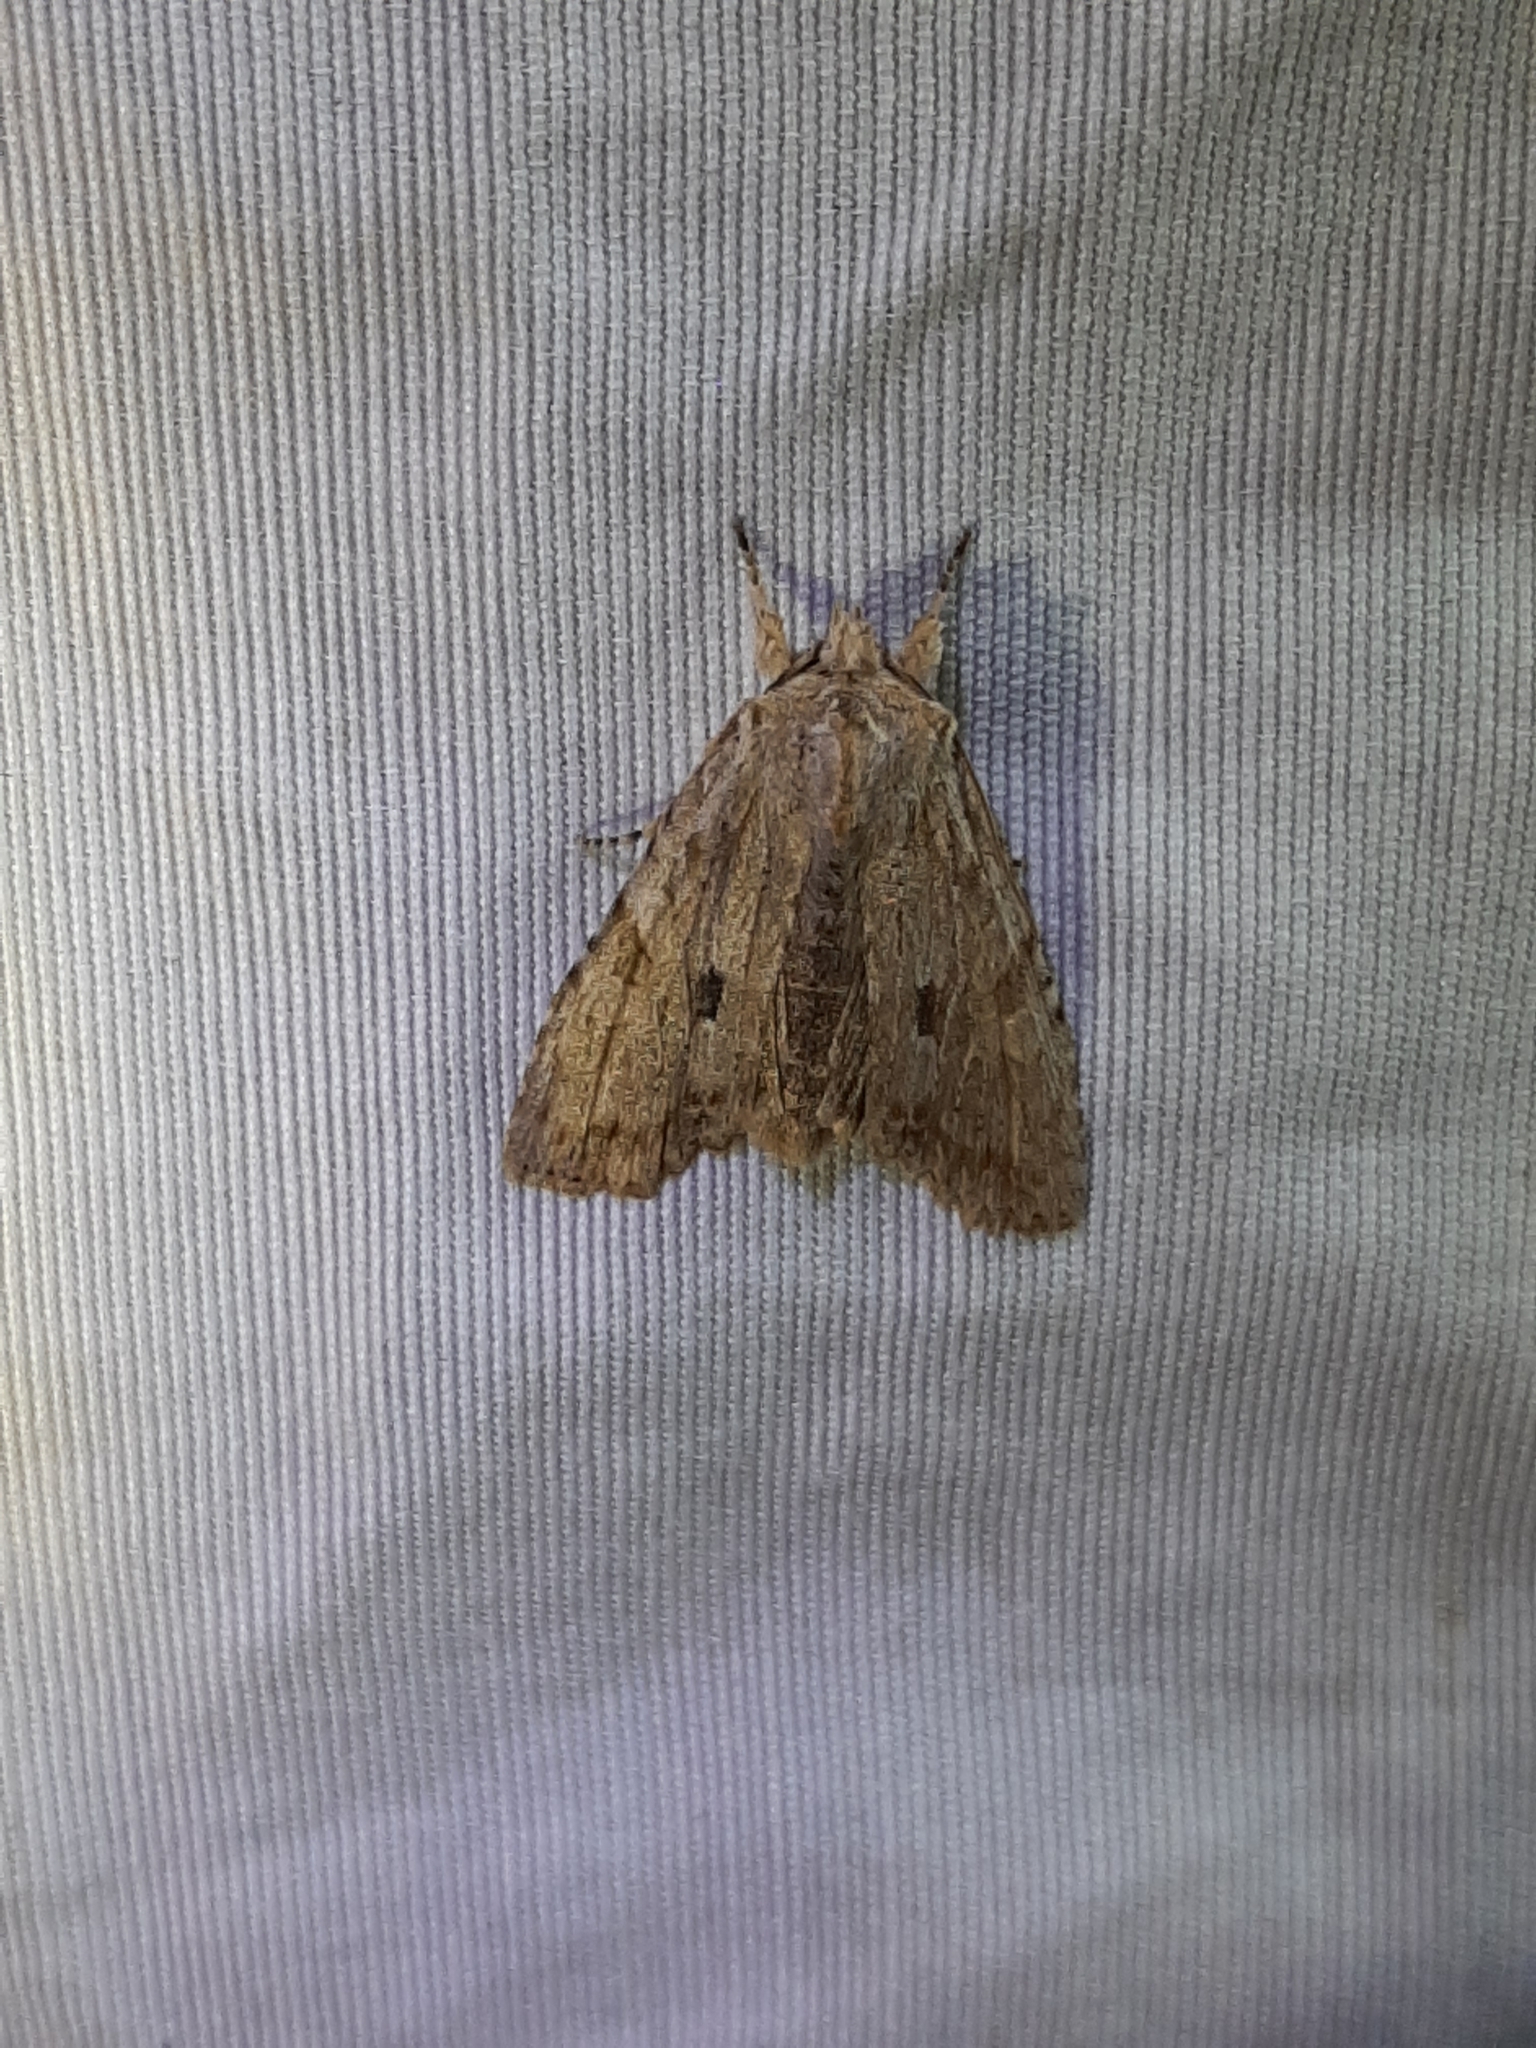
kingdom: Animalia
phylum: Arthropoda
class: Insecta
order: Lepidoptera
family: Noctuidae
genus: Lithophane
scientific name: Lithophane patefacta
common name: Dimorphic pinion moth
